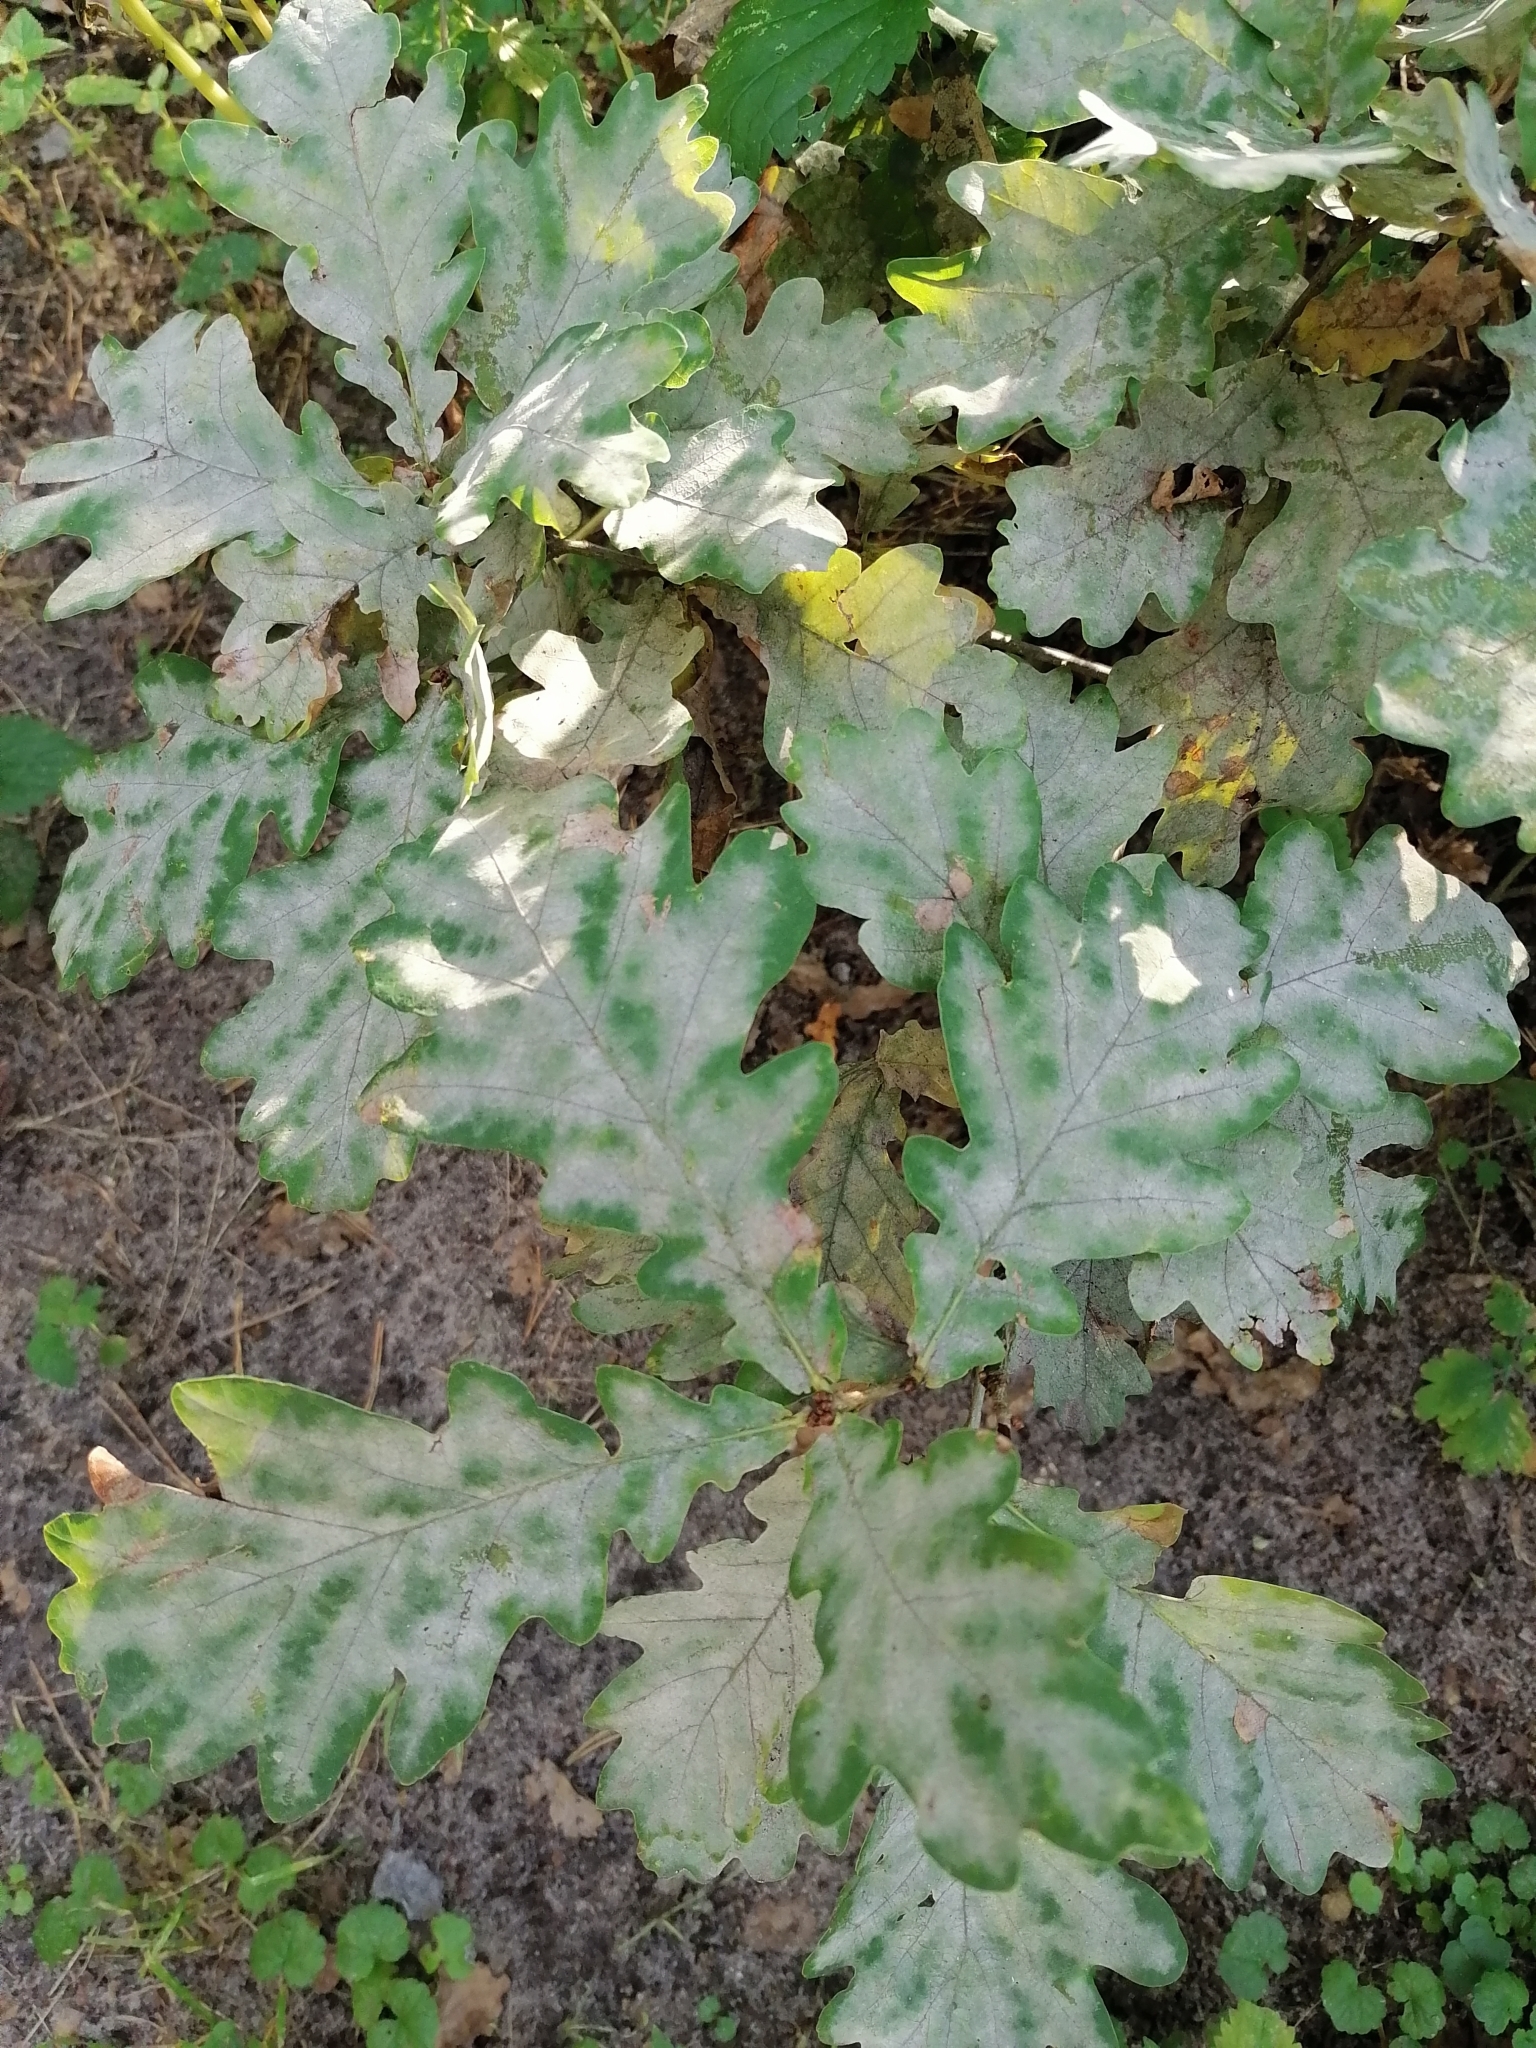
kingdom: Plantae
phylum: Tracheophyta
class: Magnoliopsida
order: Fagales
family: Fagaceae
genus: Quercus
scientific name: Quercus robur
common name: Pedunculate oak
